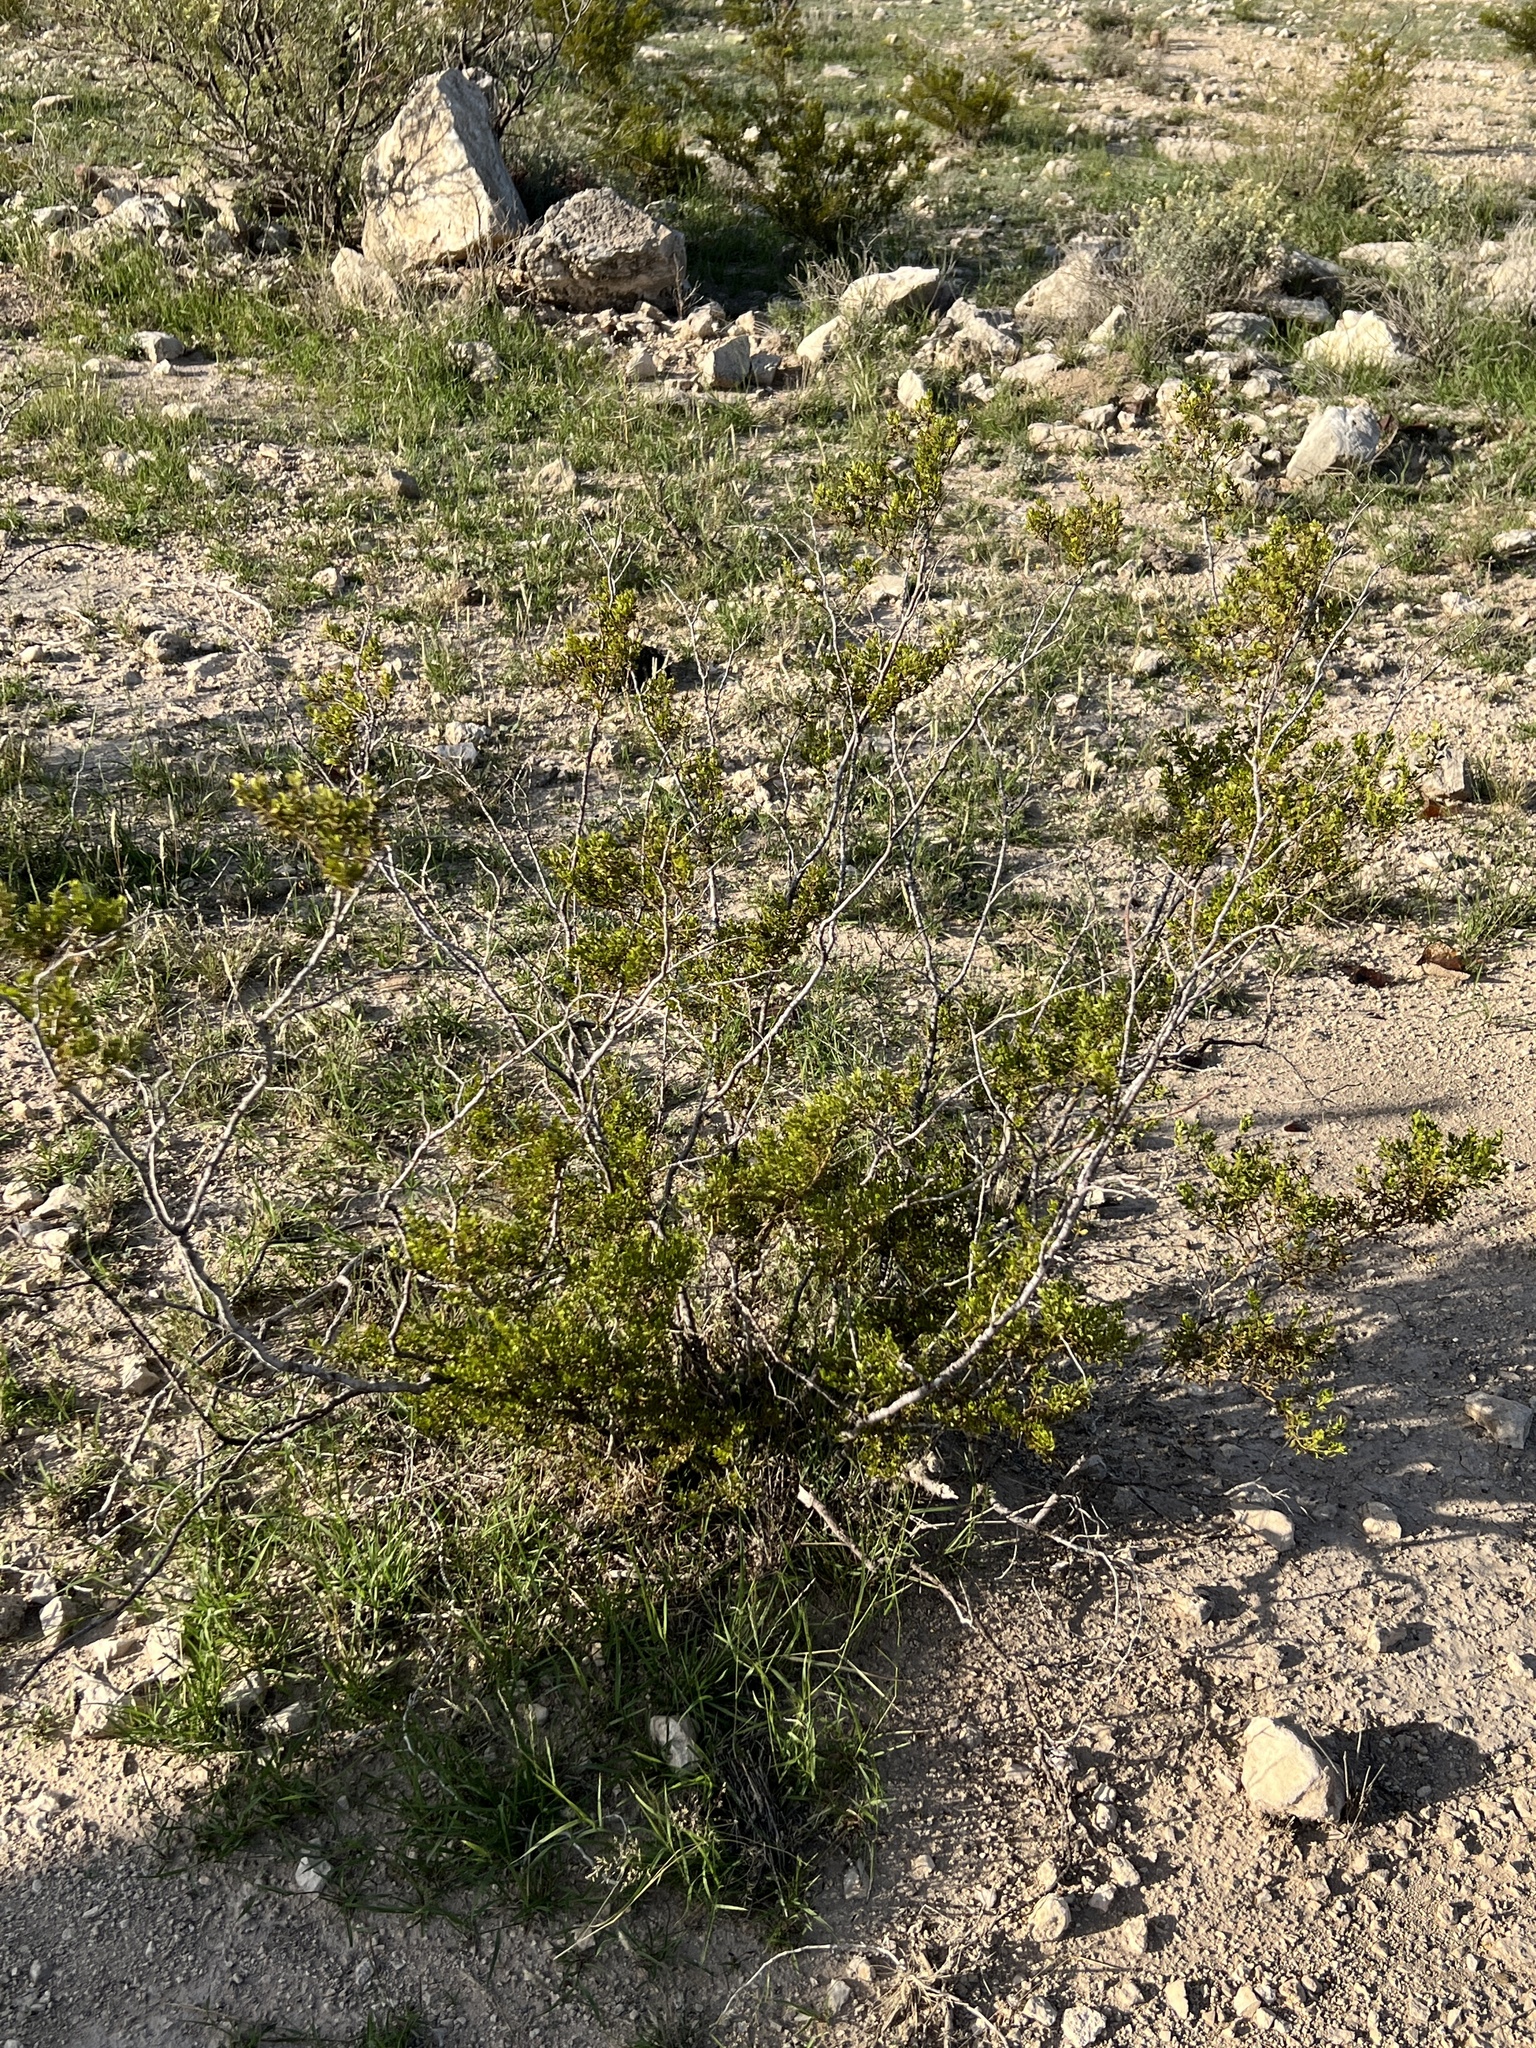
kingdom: Plantae
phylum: Tracheophyta
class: Magnoliopsida
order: Zygophyllales
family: Zygophyllaceae
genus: Larrea
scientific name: Larrea tridentata
